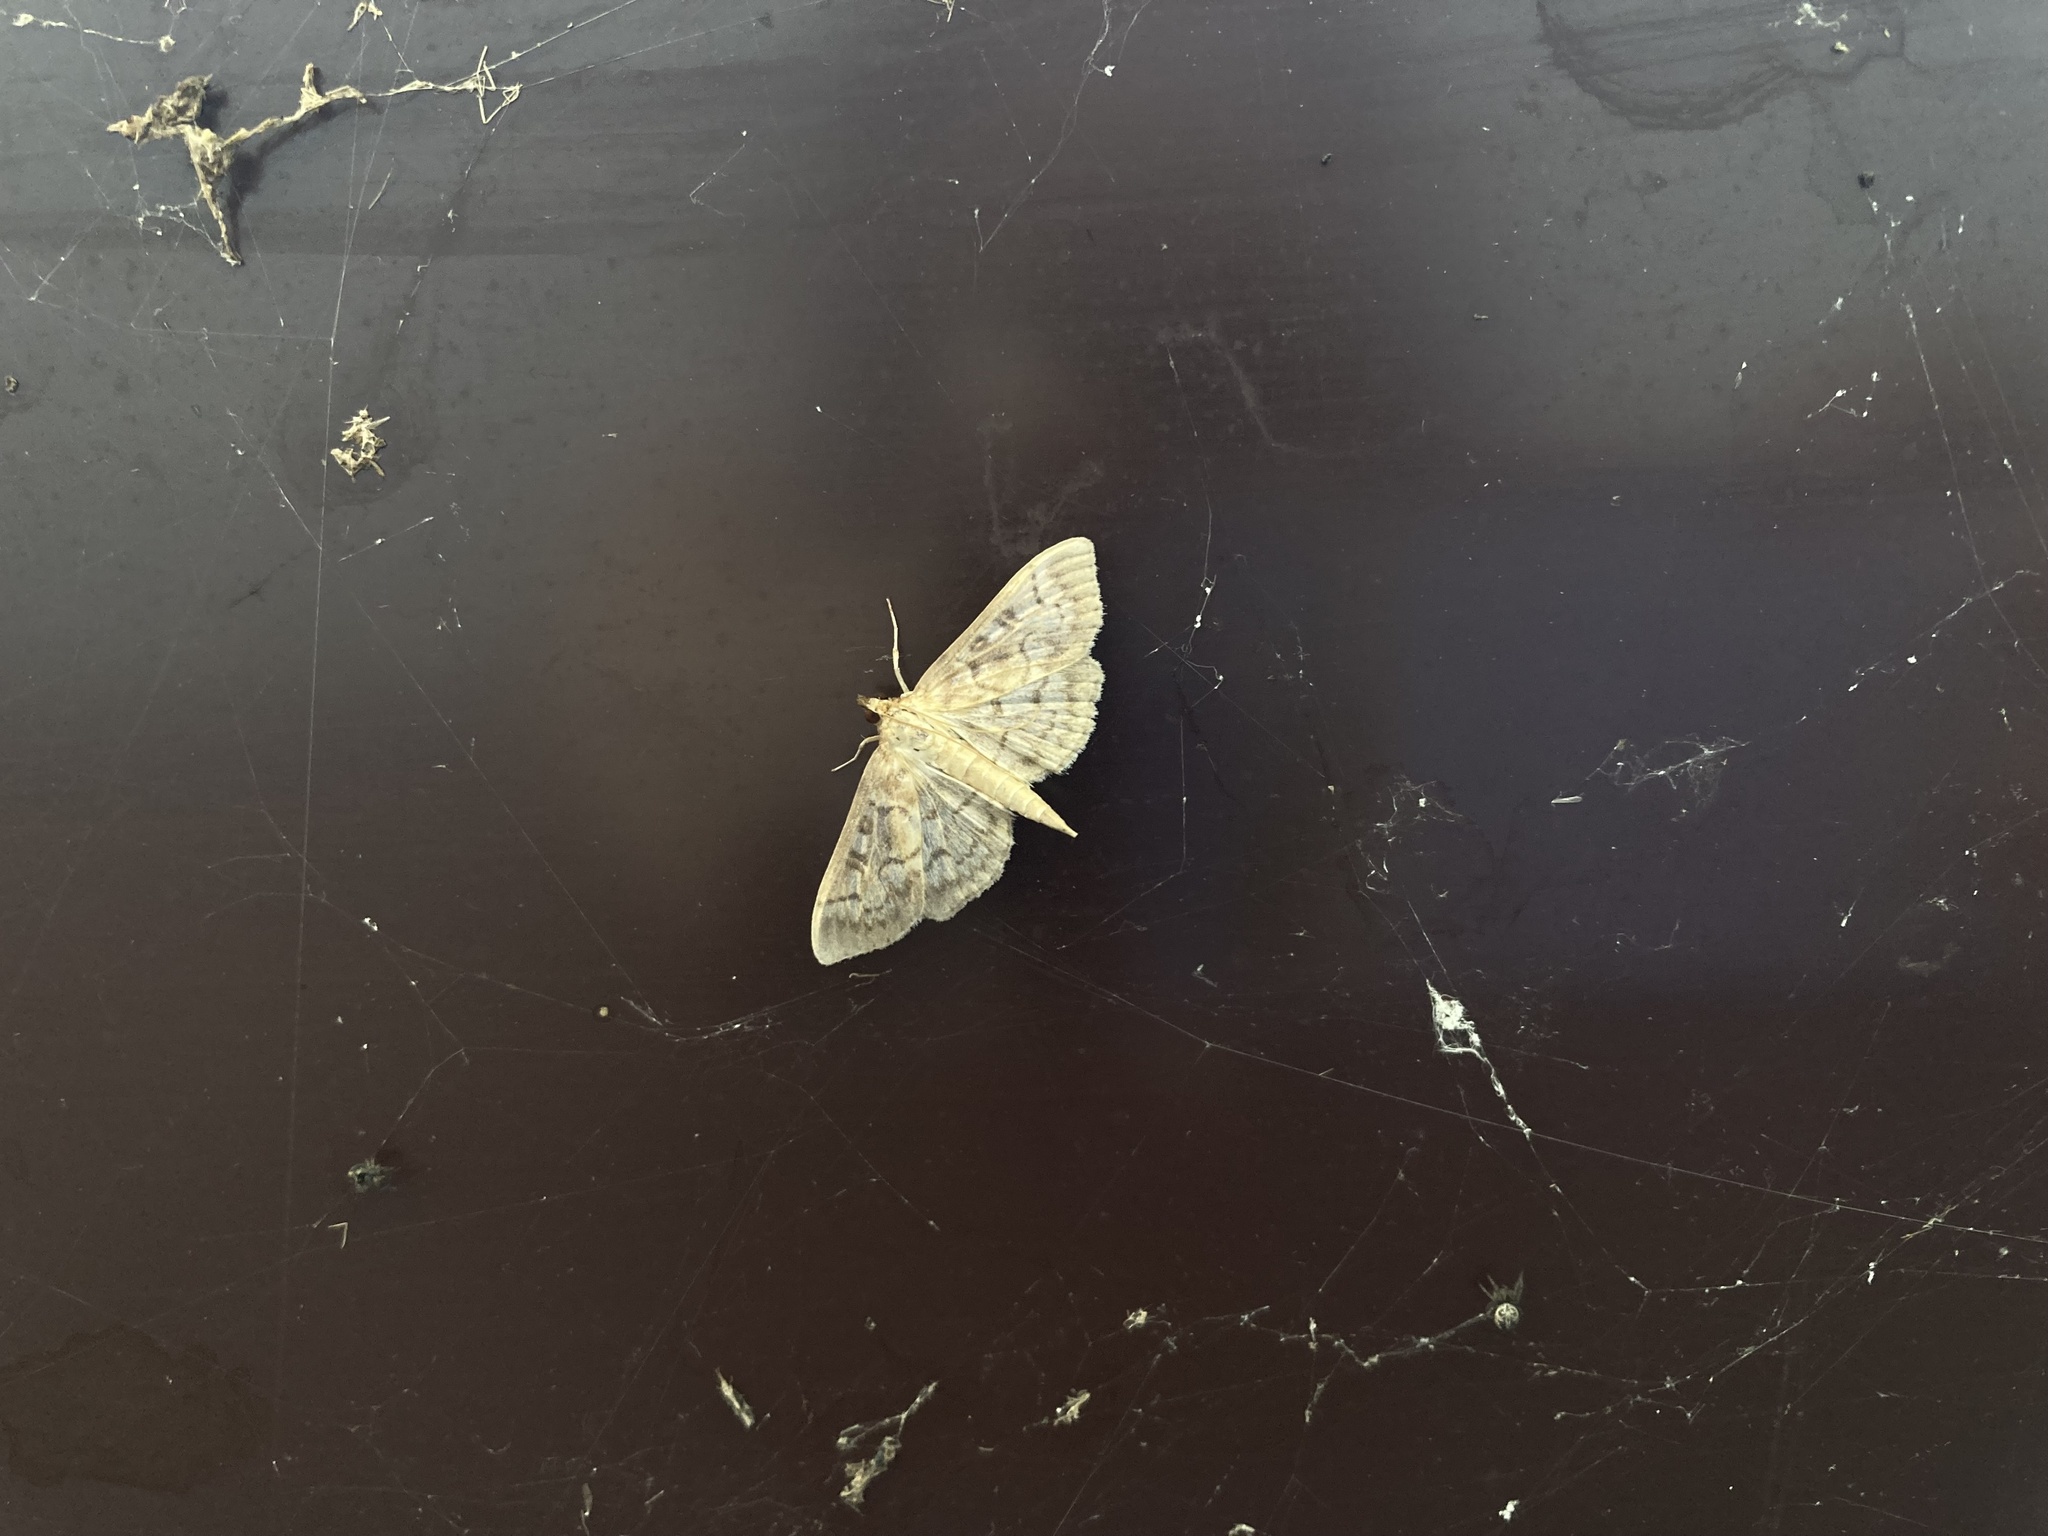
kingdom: Animalia
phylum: Arthropoda
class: Insecta
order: Lepidoptera
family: Crambidae
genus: Herpetogramma
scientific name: Herpetogramma aquilonalis
